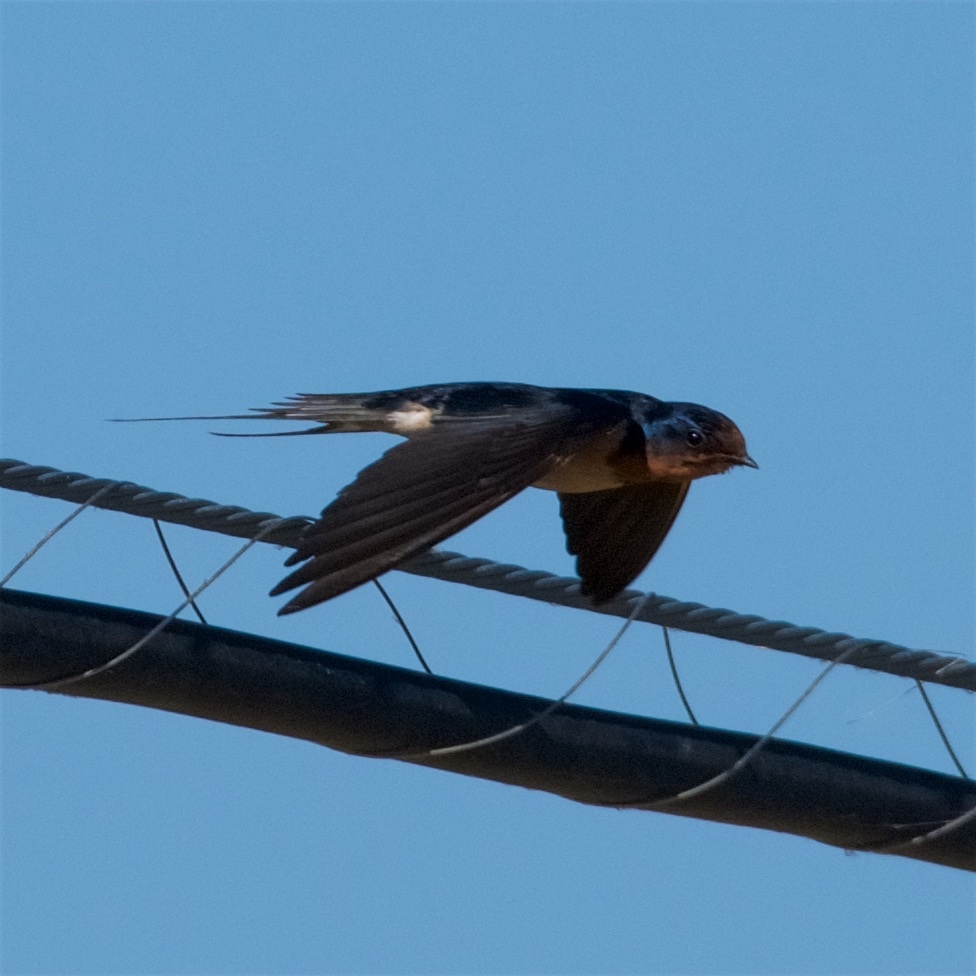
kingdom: Animalia
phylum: Chordata
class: Aves
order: Passeriformes
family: Hirundinidae
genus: Hirundo
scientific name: Hirundo rustica
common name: Barn swallow
